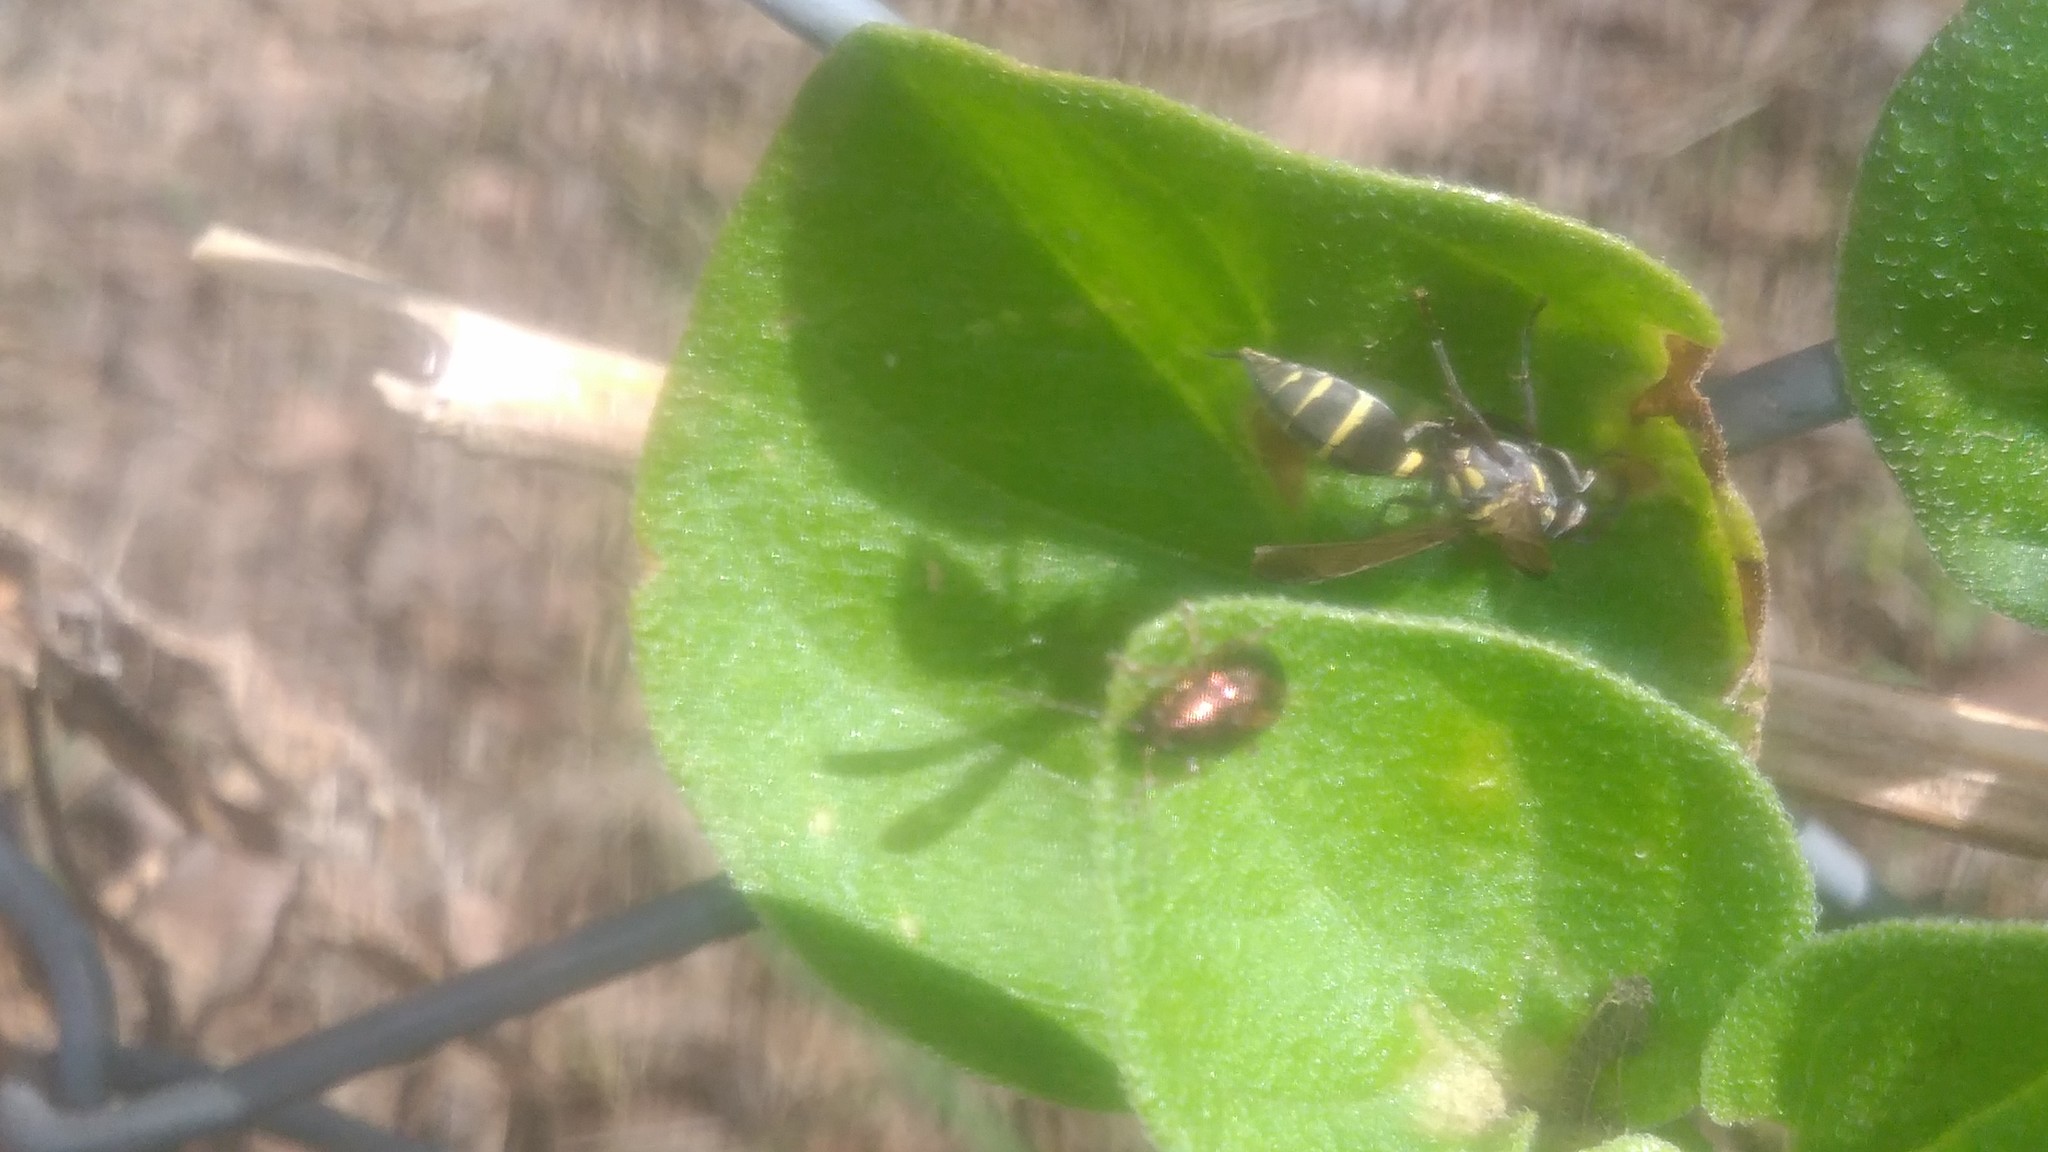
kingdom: Animalia
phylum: Arthropoda
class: Insecta
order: Hymenoptera
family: Eumenidae
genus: Polybia
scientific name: Polybia occidentalis
